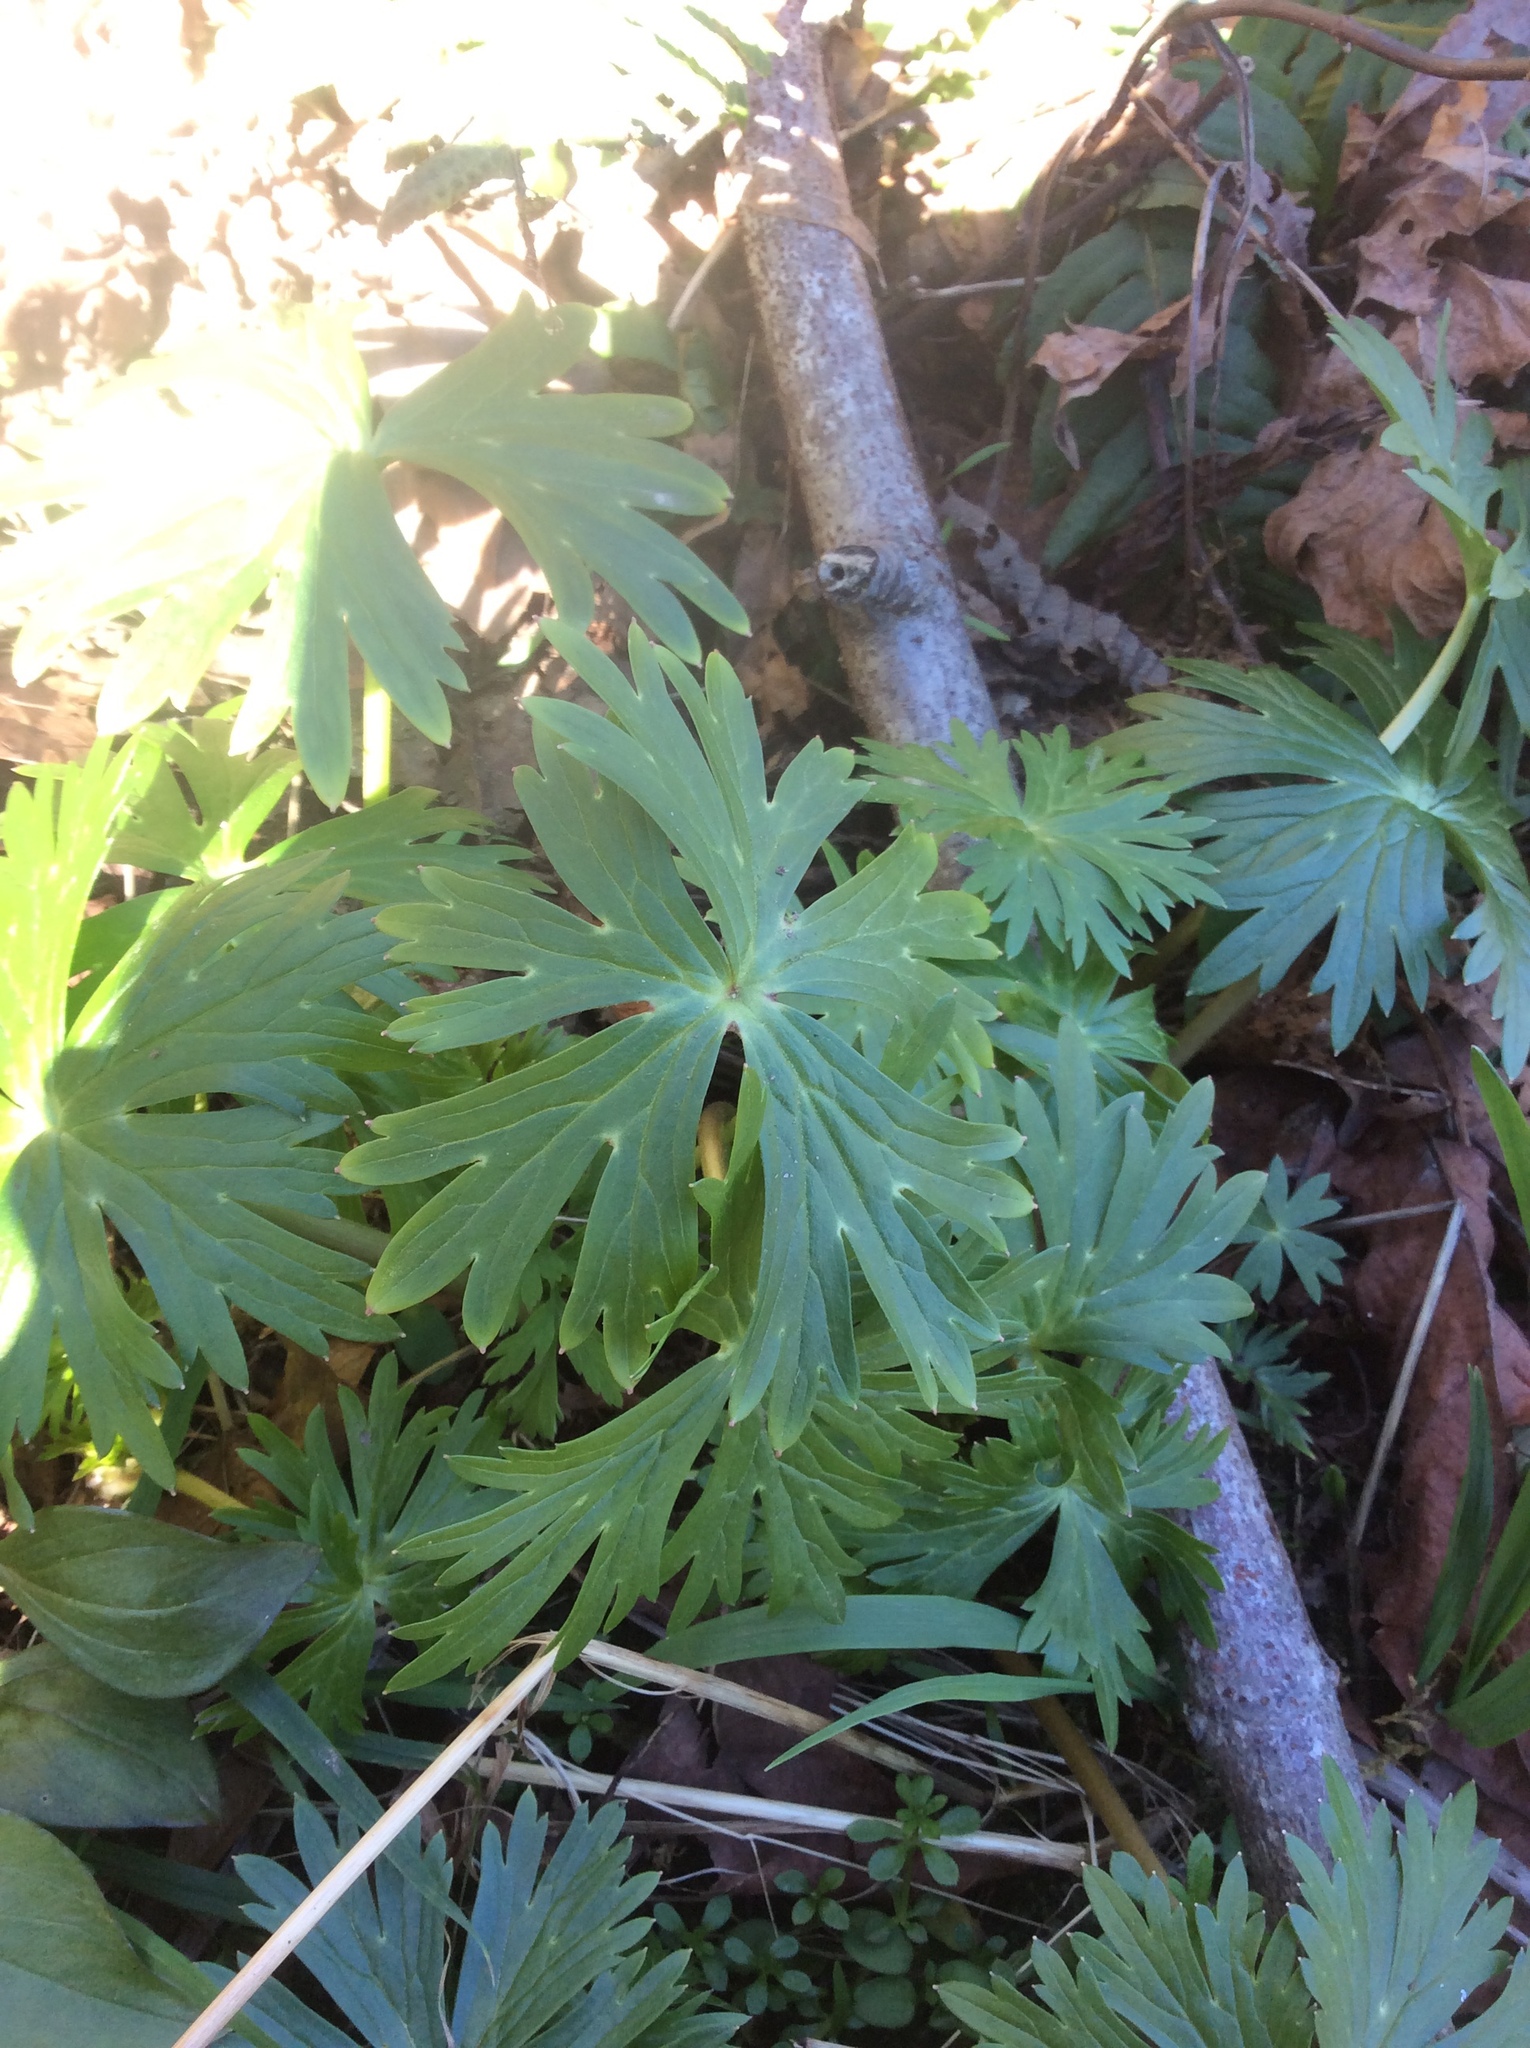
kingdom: Plantae
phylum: Tracheophyta
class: Magnoliopsida
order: Ranunculales
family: Ranunculaceae
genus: Delphinium
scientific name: Delphinium trolliifolium
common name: Cow-poison
